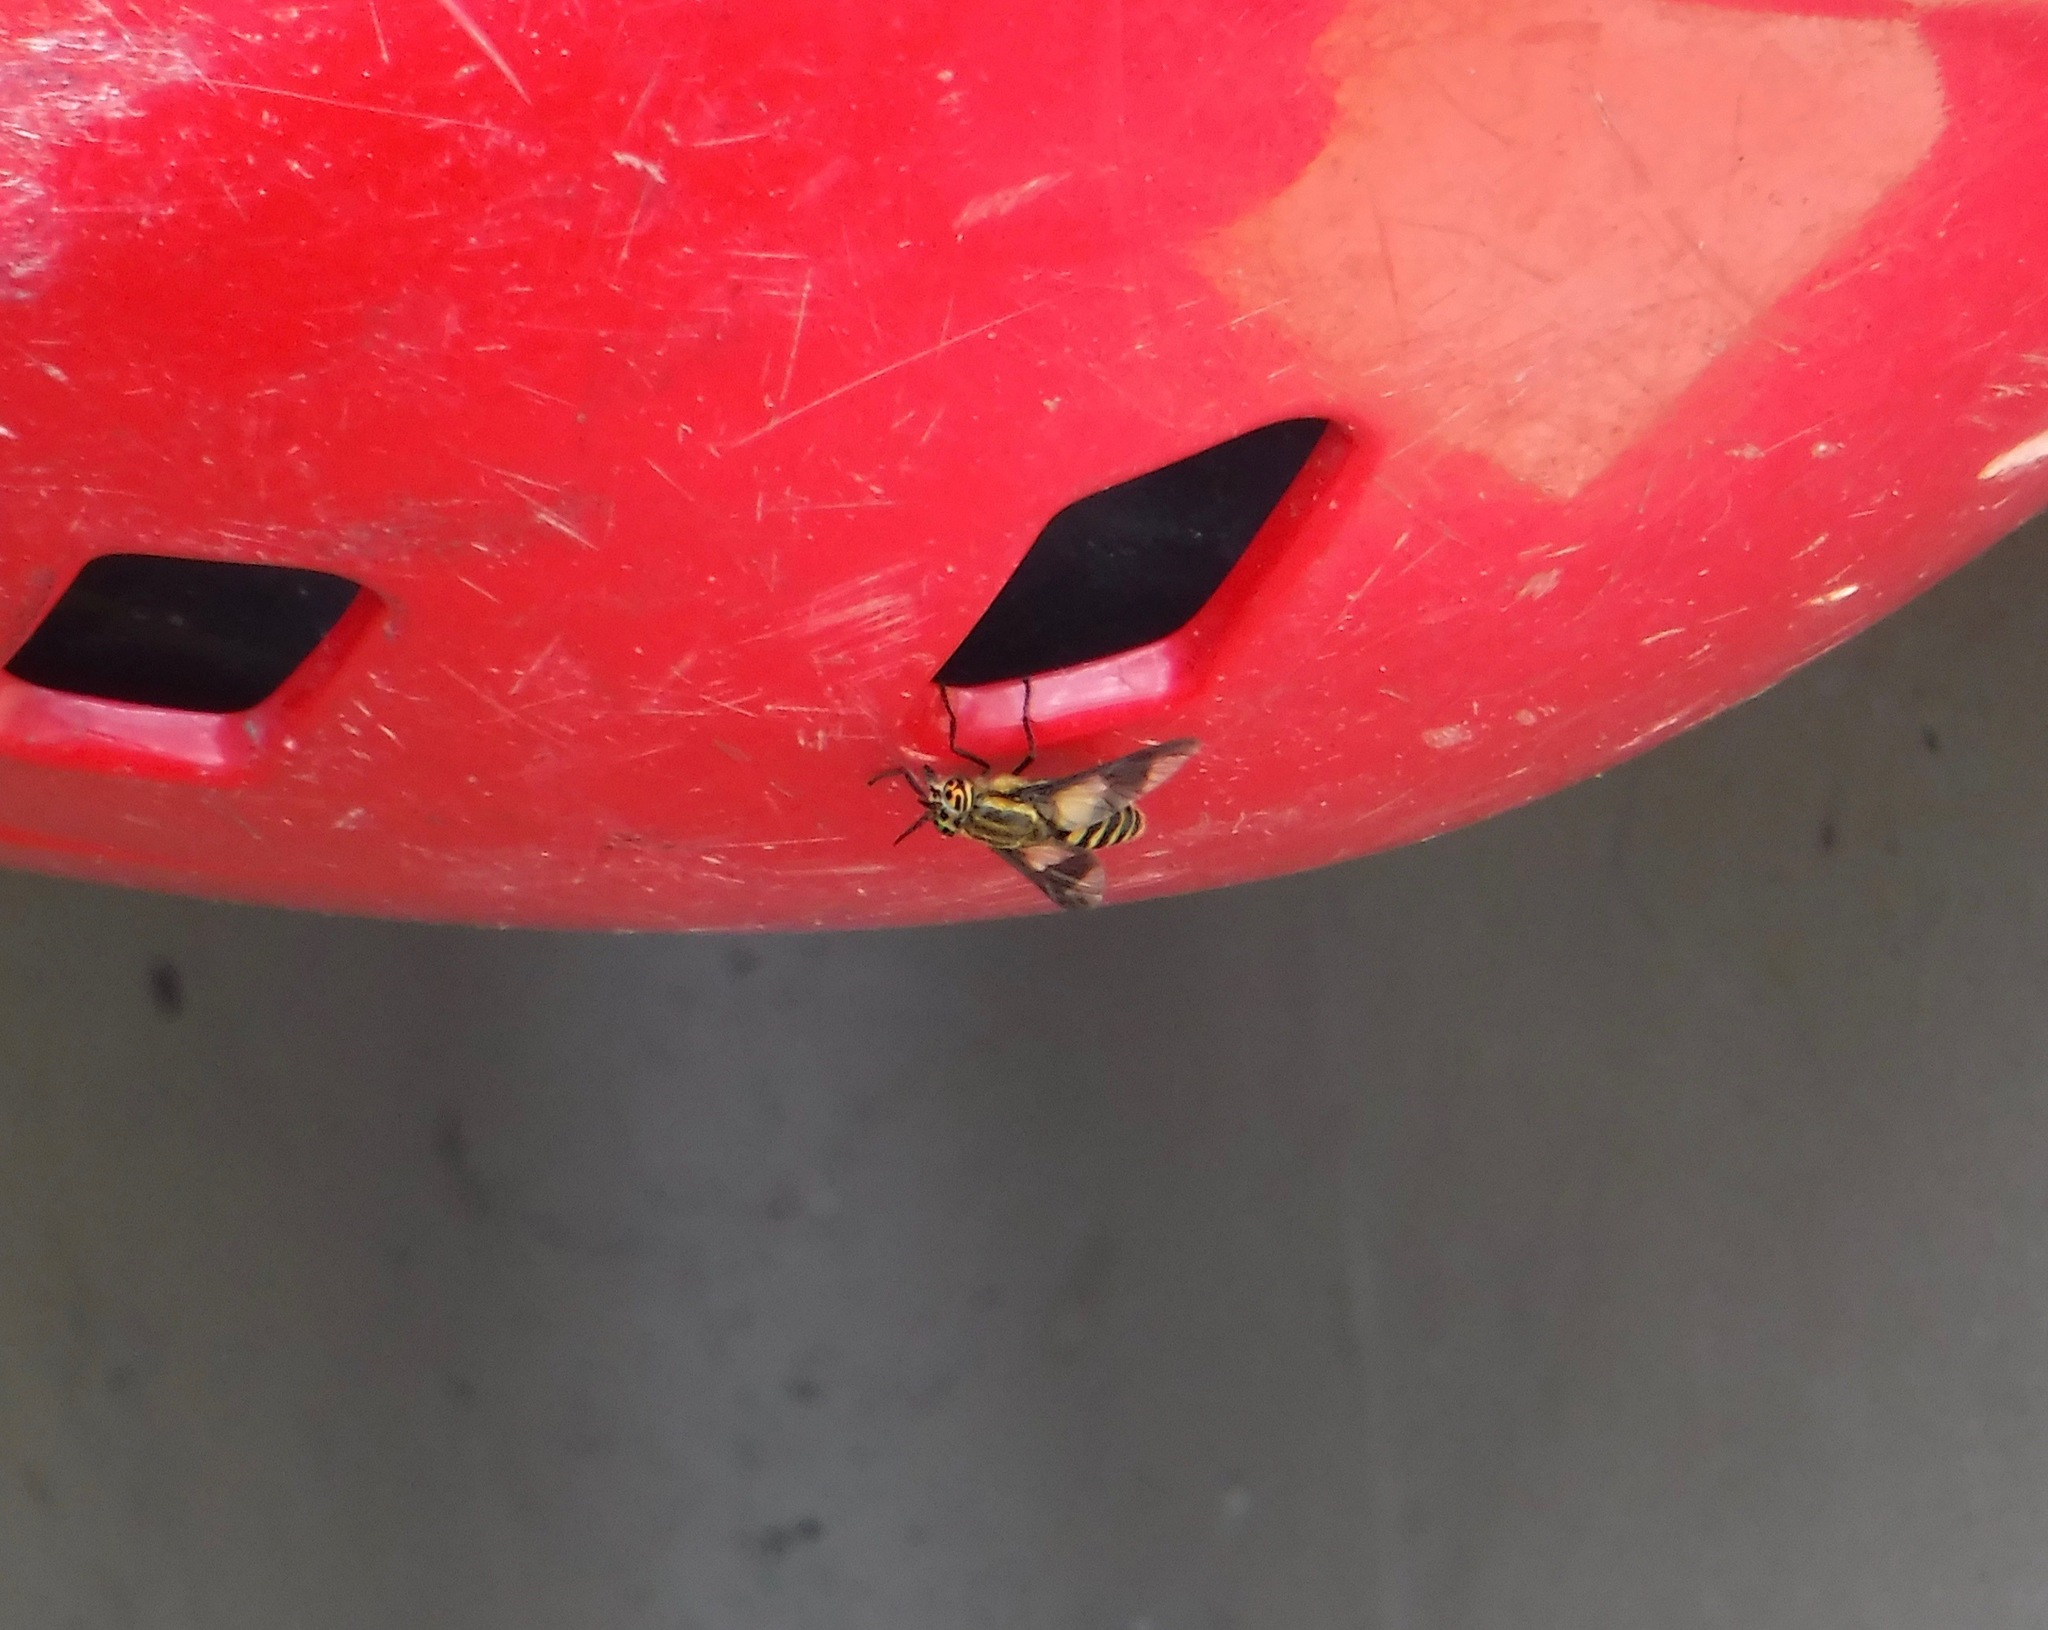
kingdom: Animalia
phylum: Arthropoda
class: Insecta
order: Diptera
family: Tabanidae
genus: Chrysops
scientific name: Chrysops venus
